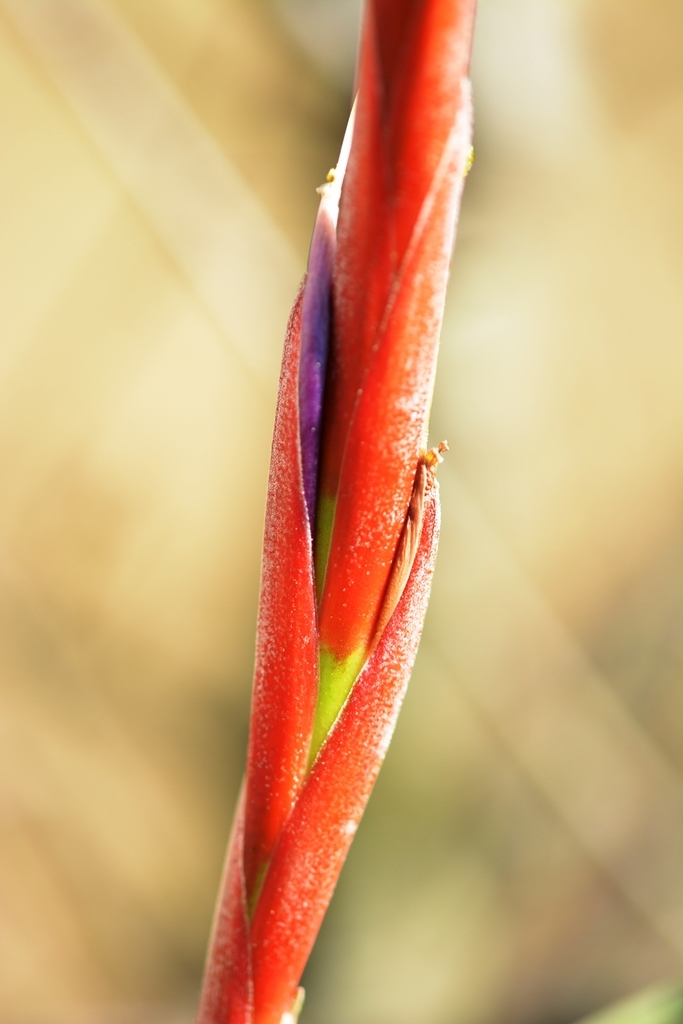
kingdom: Plantae
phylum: Tracheophyta
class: Liliopsida
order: Poales
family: Bromeliaceae
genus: Tillandsia
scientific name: Tillandsia flabellata
